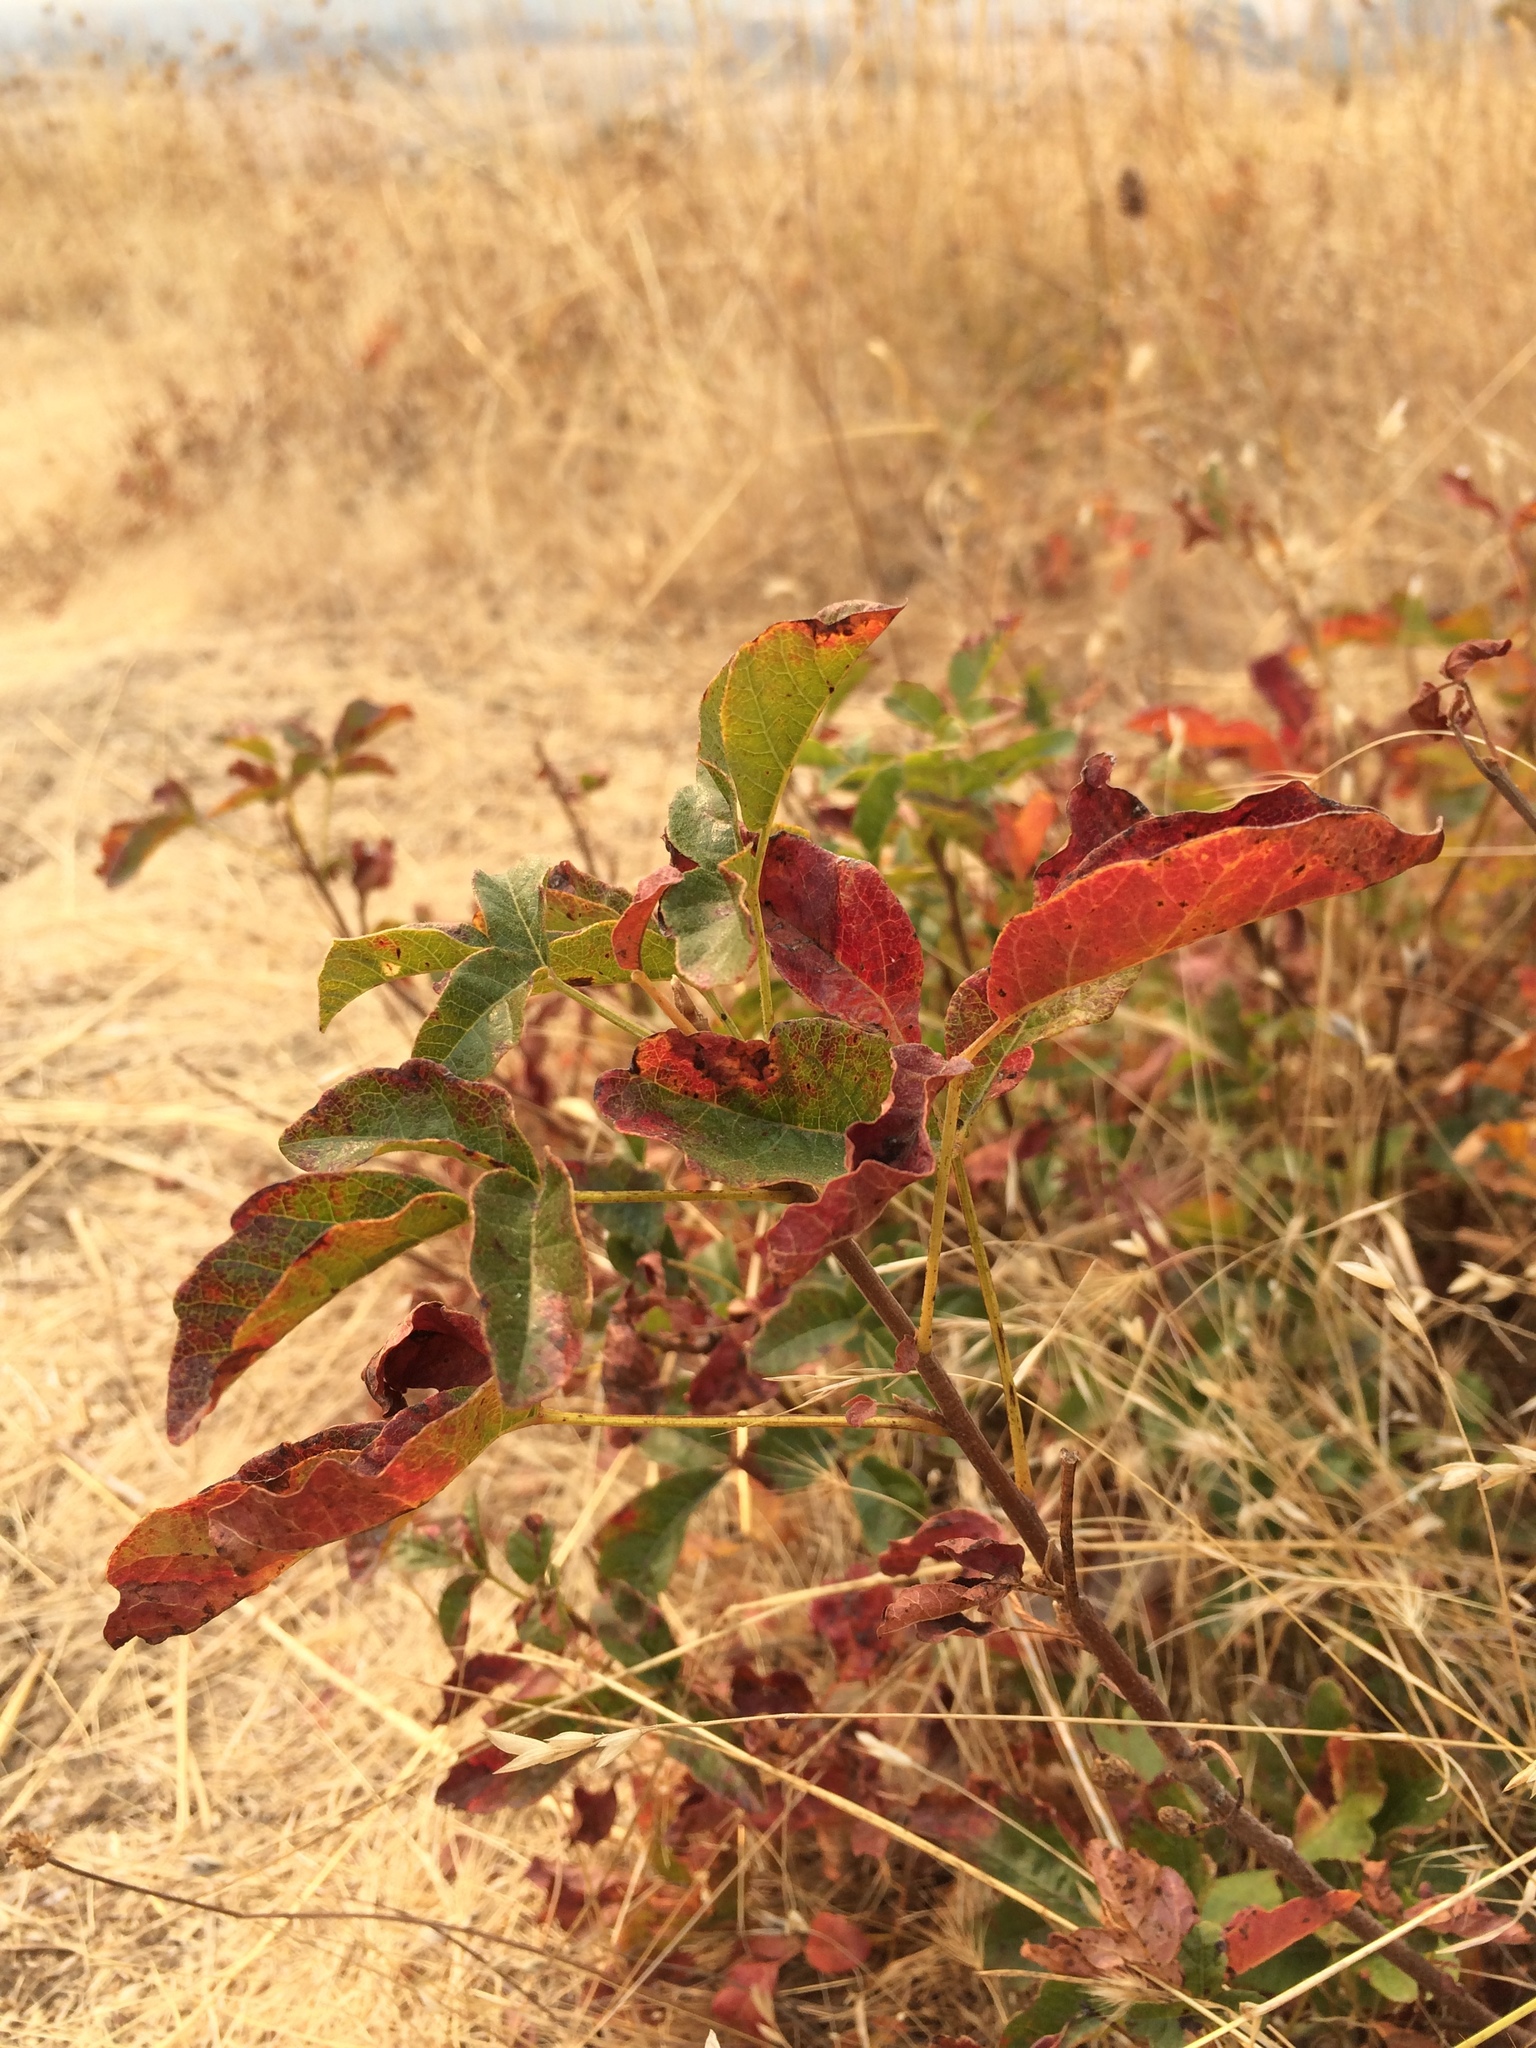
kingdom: Plantae
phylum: Tracheophyta
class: Magnoliopsida
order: Sapindales
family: Anacardiaceae
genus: Toxicodendron
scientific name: Toxicodendron diversilobum
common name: Pacific poison-oak
